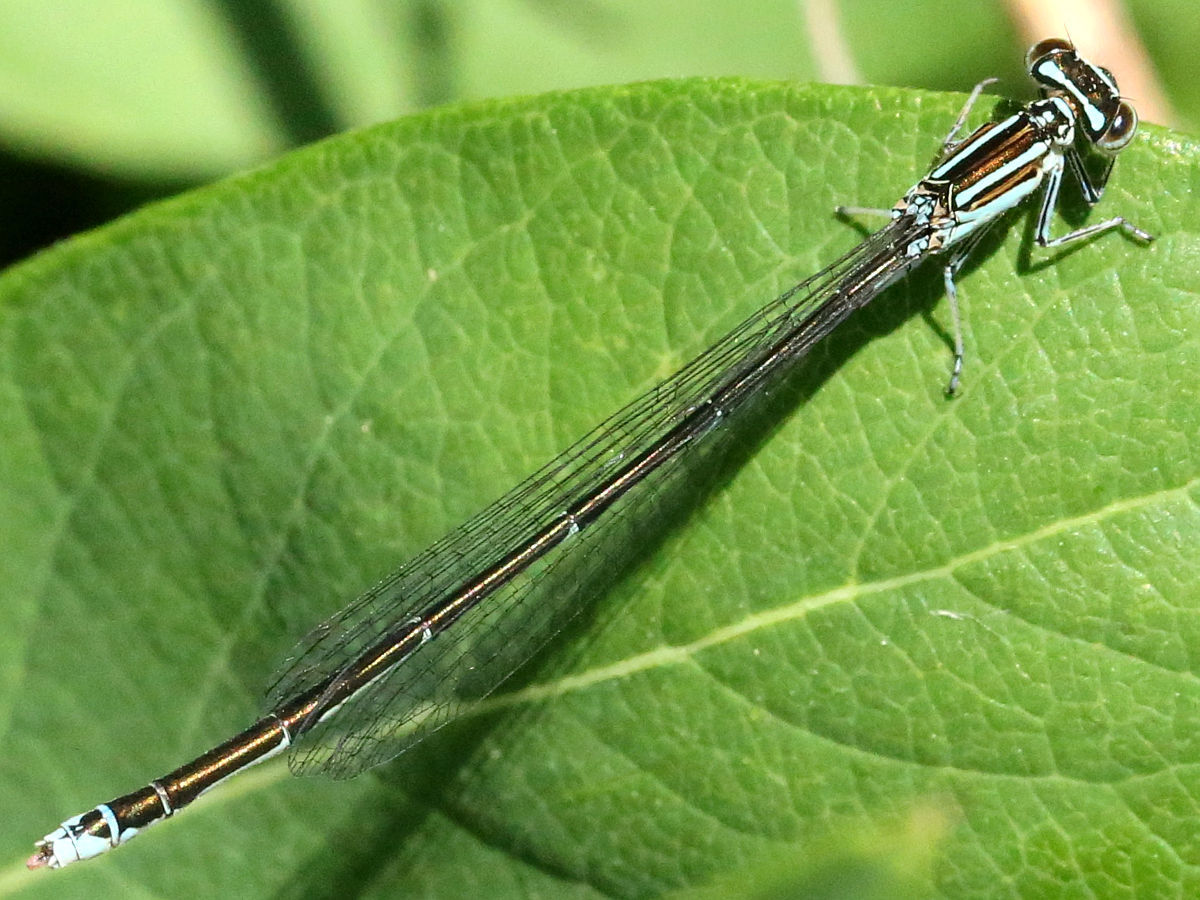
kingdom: Animalia
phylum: Arthropoda
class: Insecta
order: Odonata
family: Coenagrionidae
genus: Enallagma
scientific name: Enallagma exsulans
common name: Stream bluet
